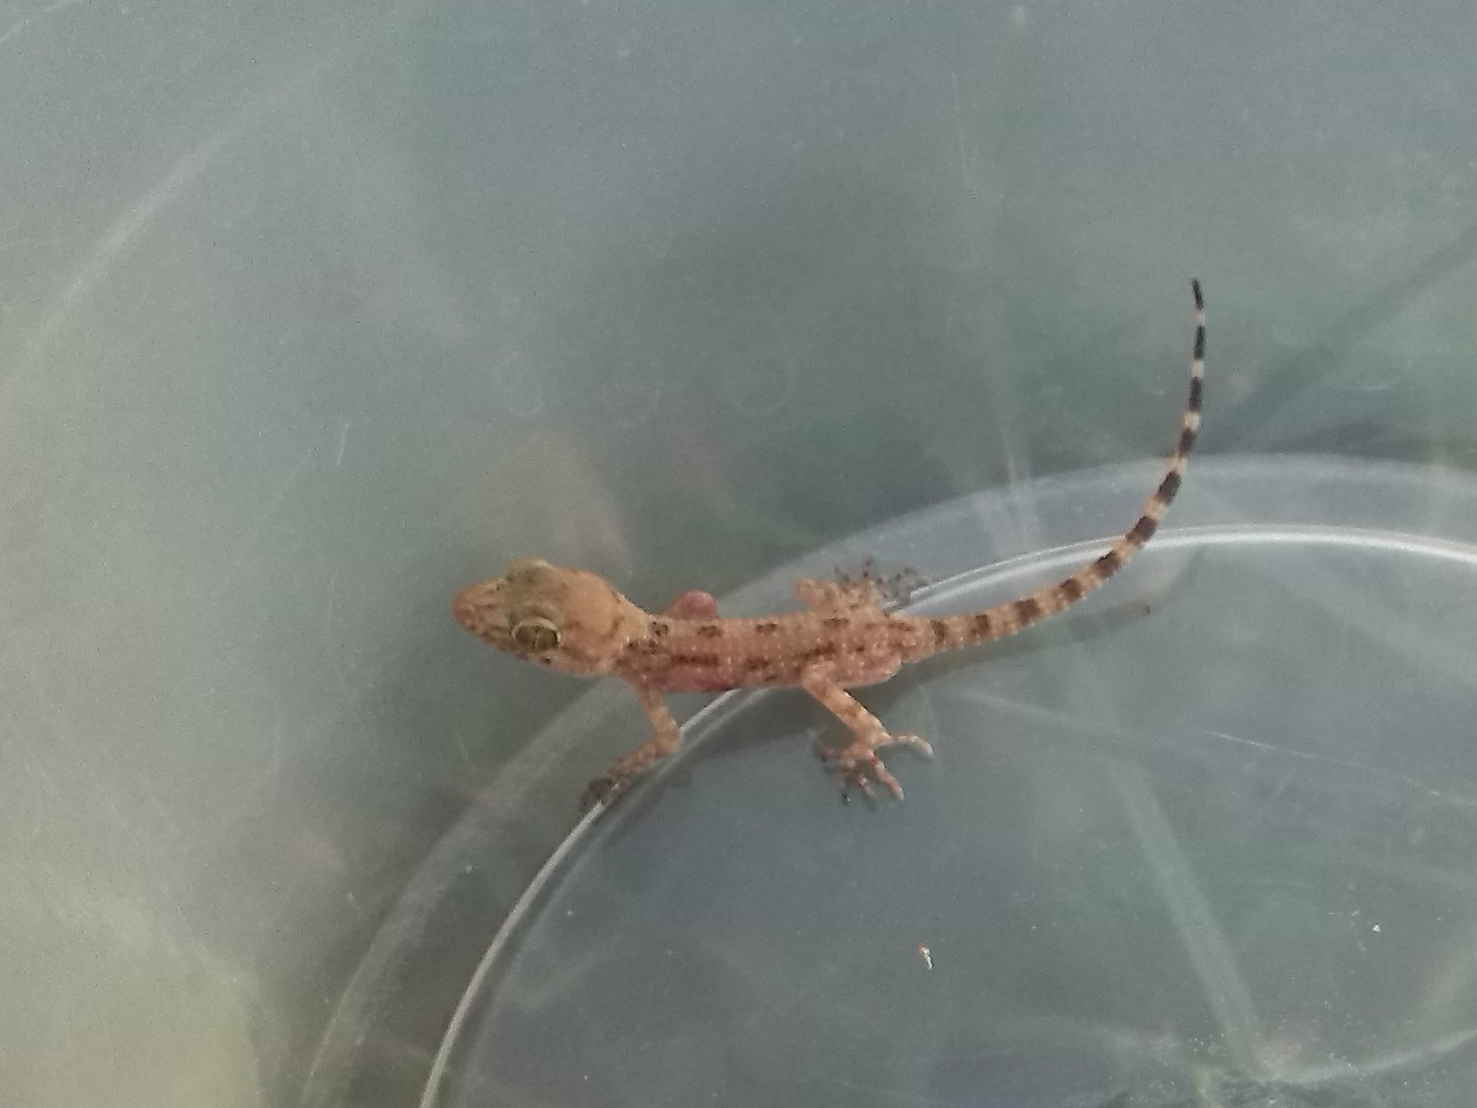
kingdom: Animalia
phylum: Chordata
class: Squamata
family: Gekkonidae
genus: Cyrtopodion
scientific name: Cyrtopodion scabrum
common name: Rough-tailed gecko
